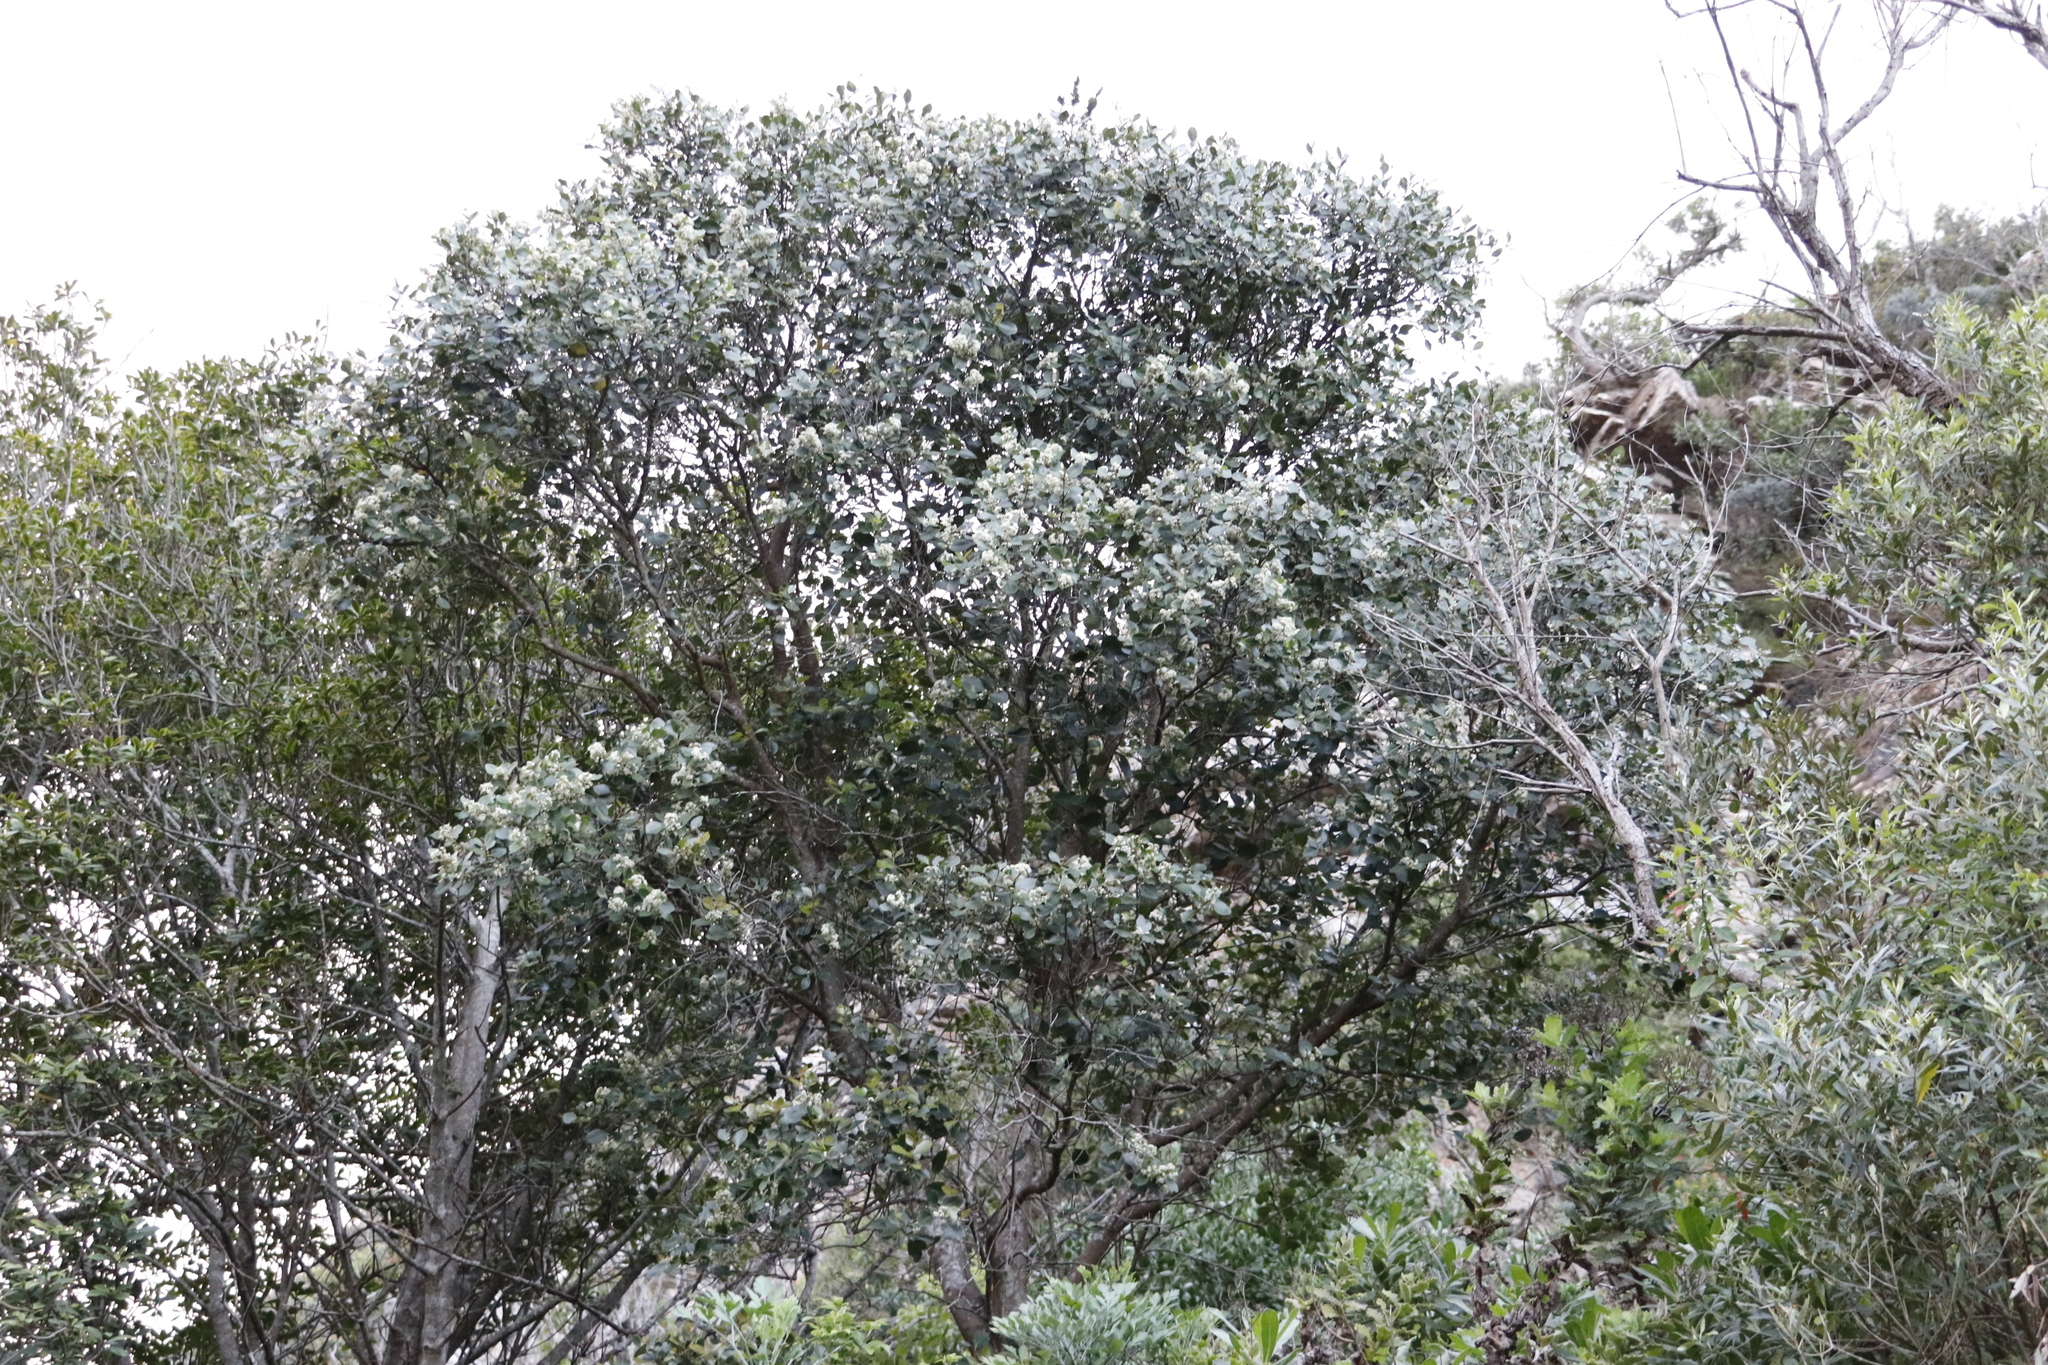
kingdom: Plantae
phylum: Tracheophyta
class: Magnoliopsida
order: Celastrales
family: Celastraceae
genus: Cassine
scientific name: Cassine peragua
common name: Cape saffron
